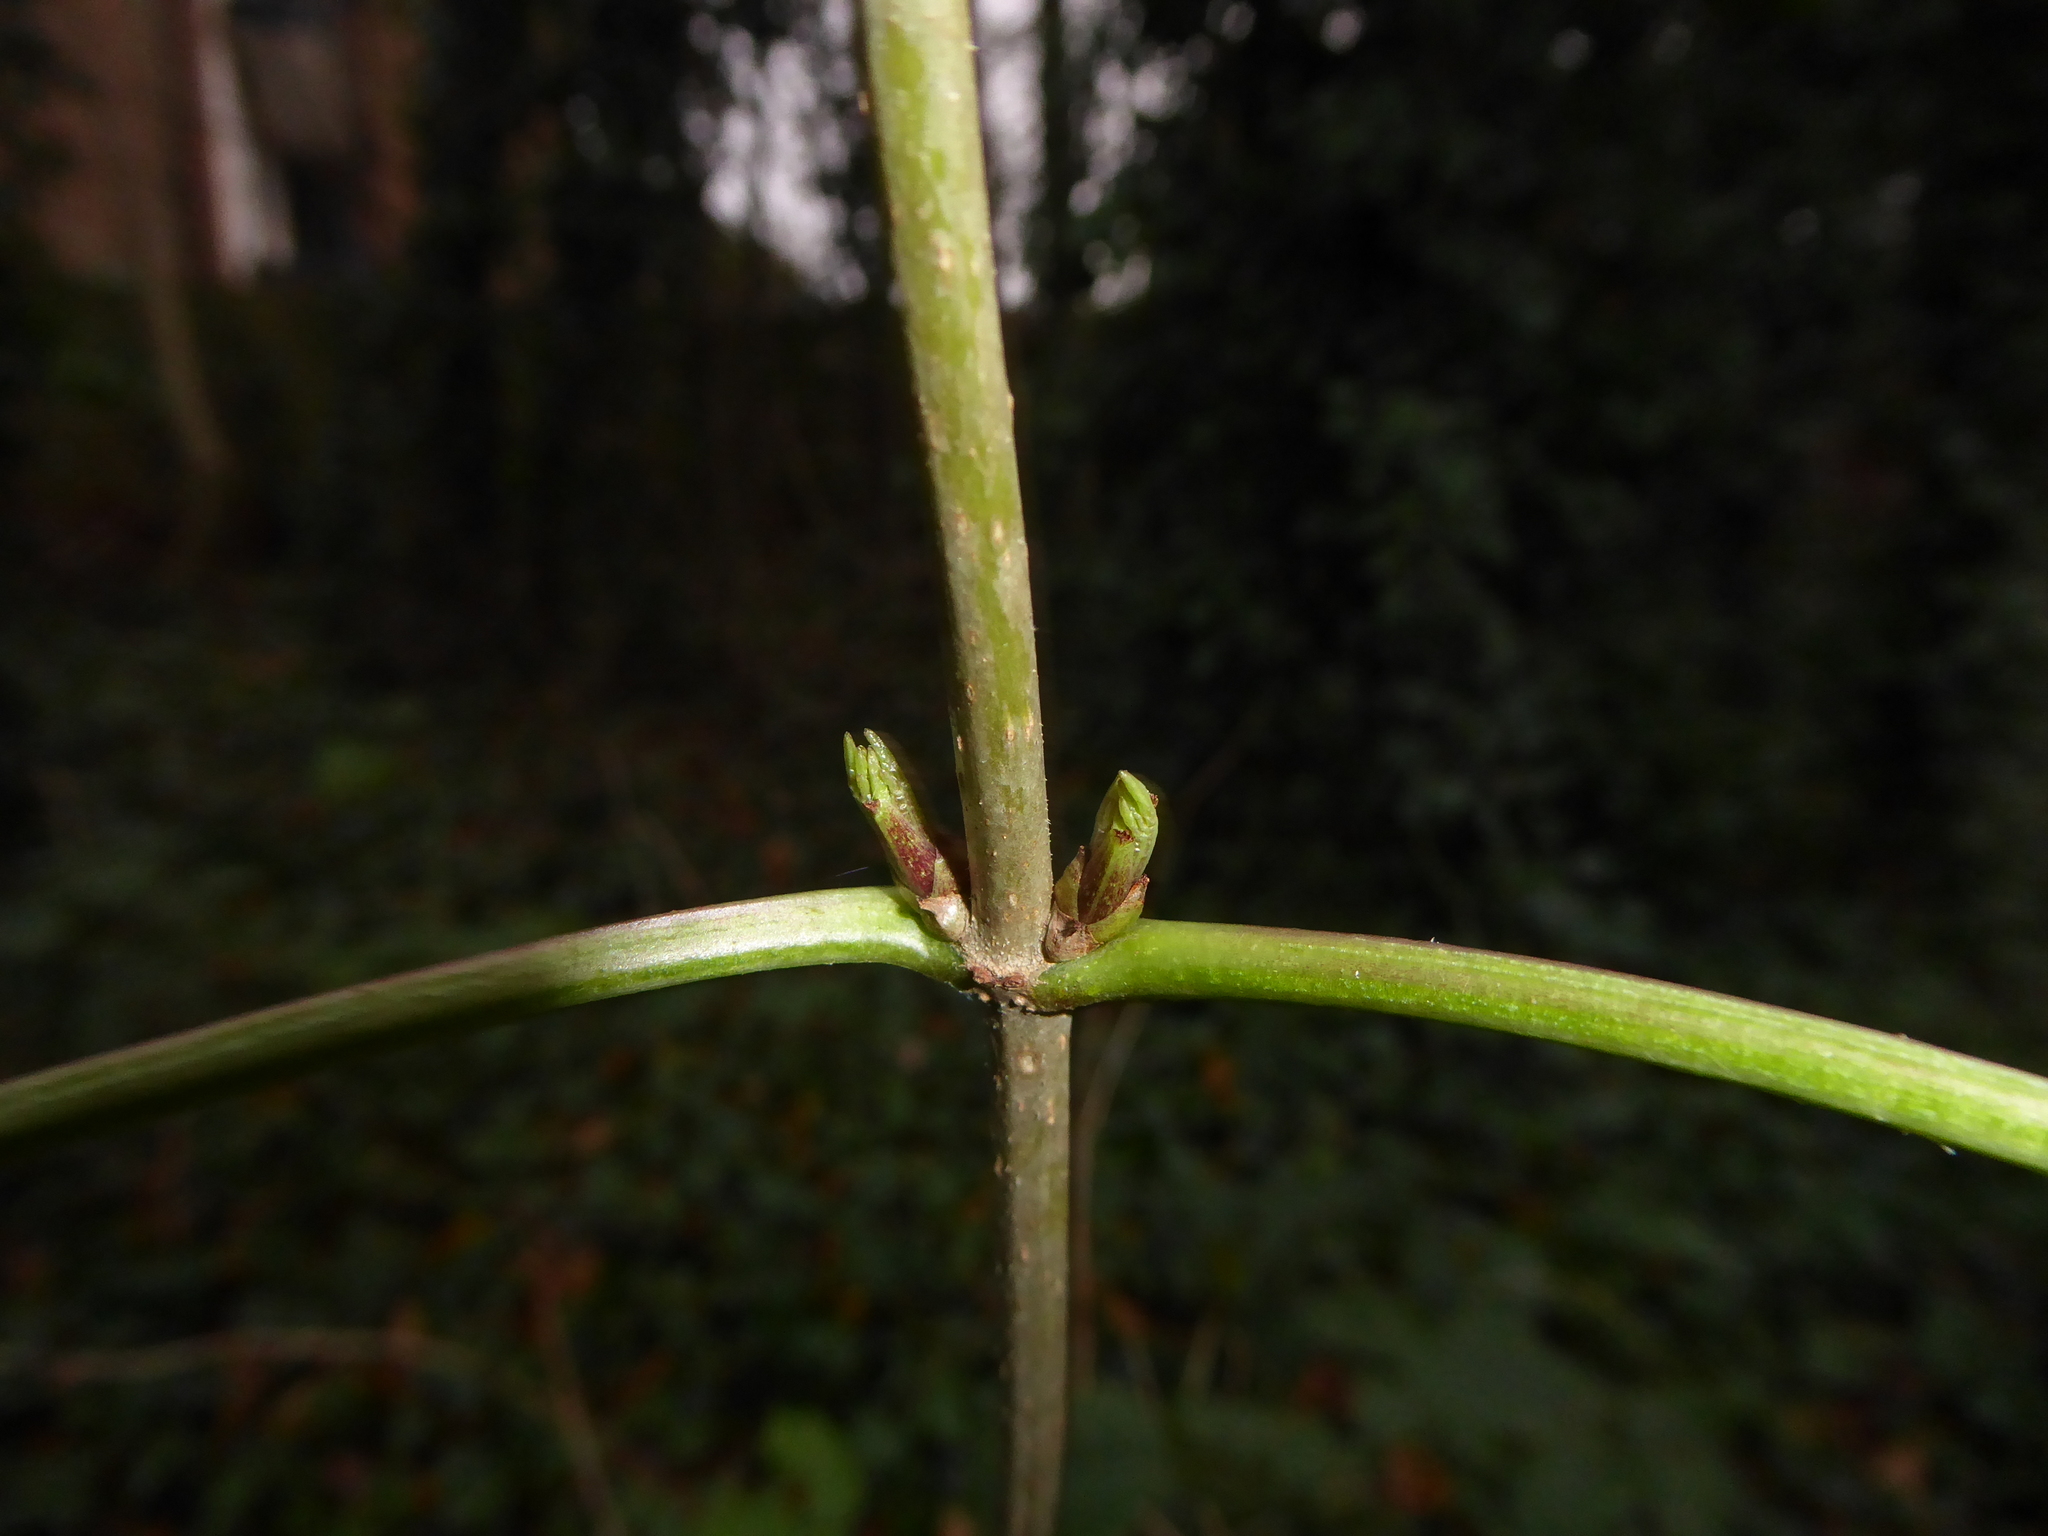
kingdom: Plantae
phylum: Tracheophyta
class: Magnoliopsida
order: Dipsacales
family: Viburnaceae
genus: Sambucus
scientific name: Sambucus nigra
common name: Elder
